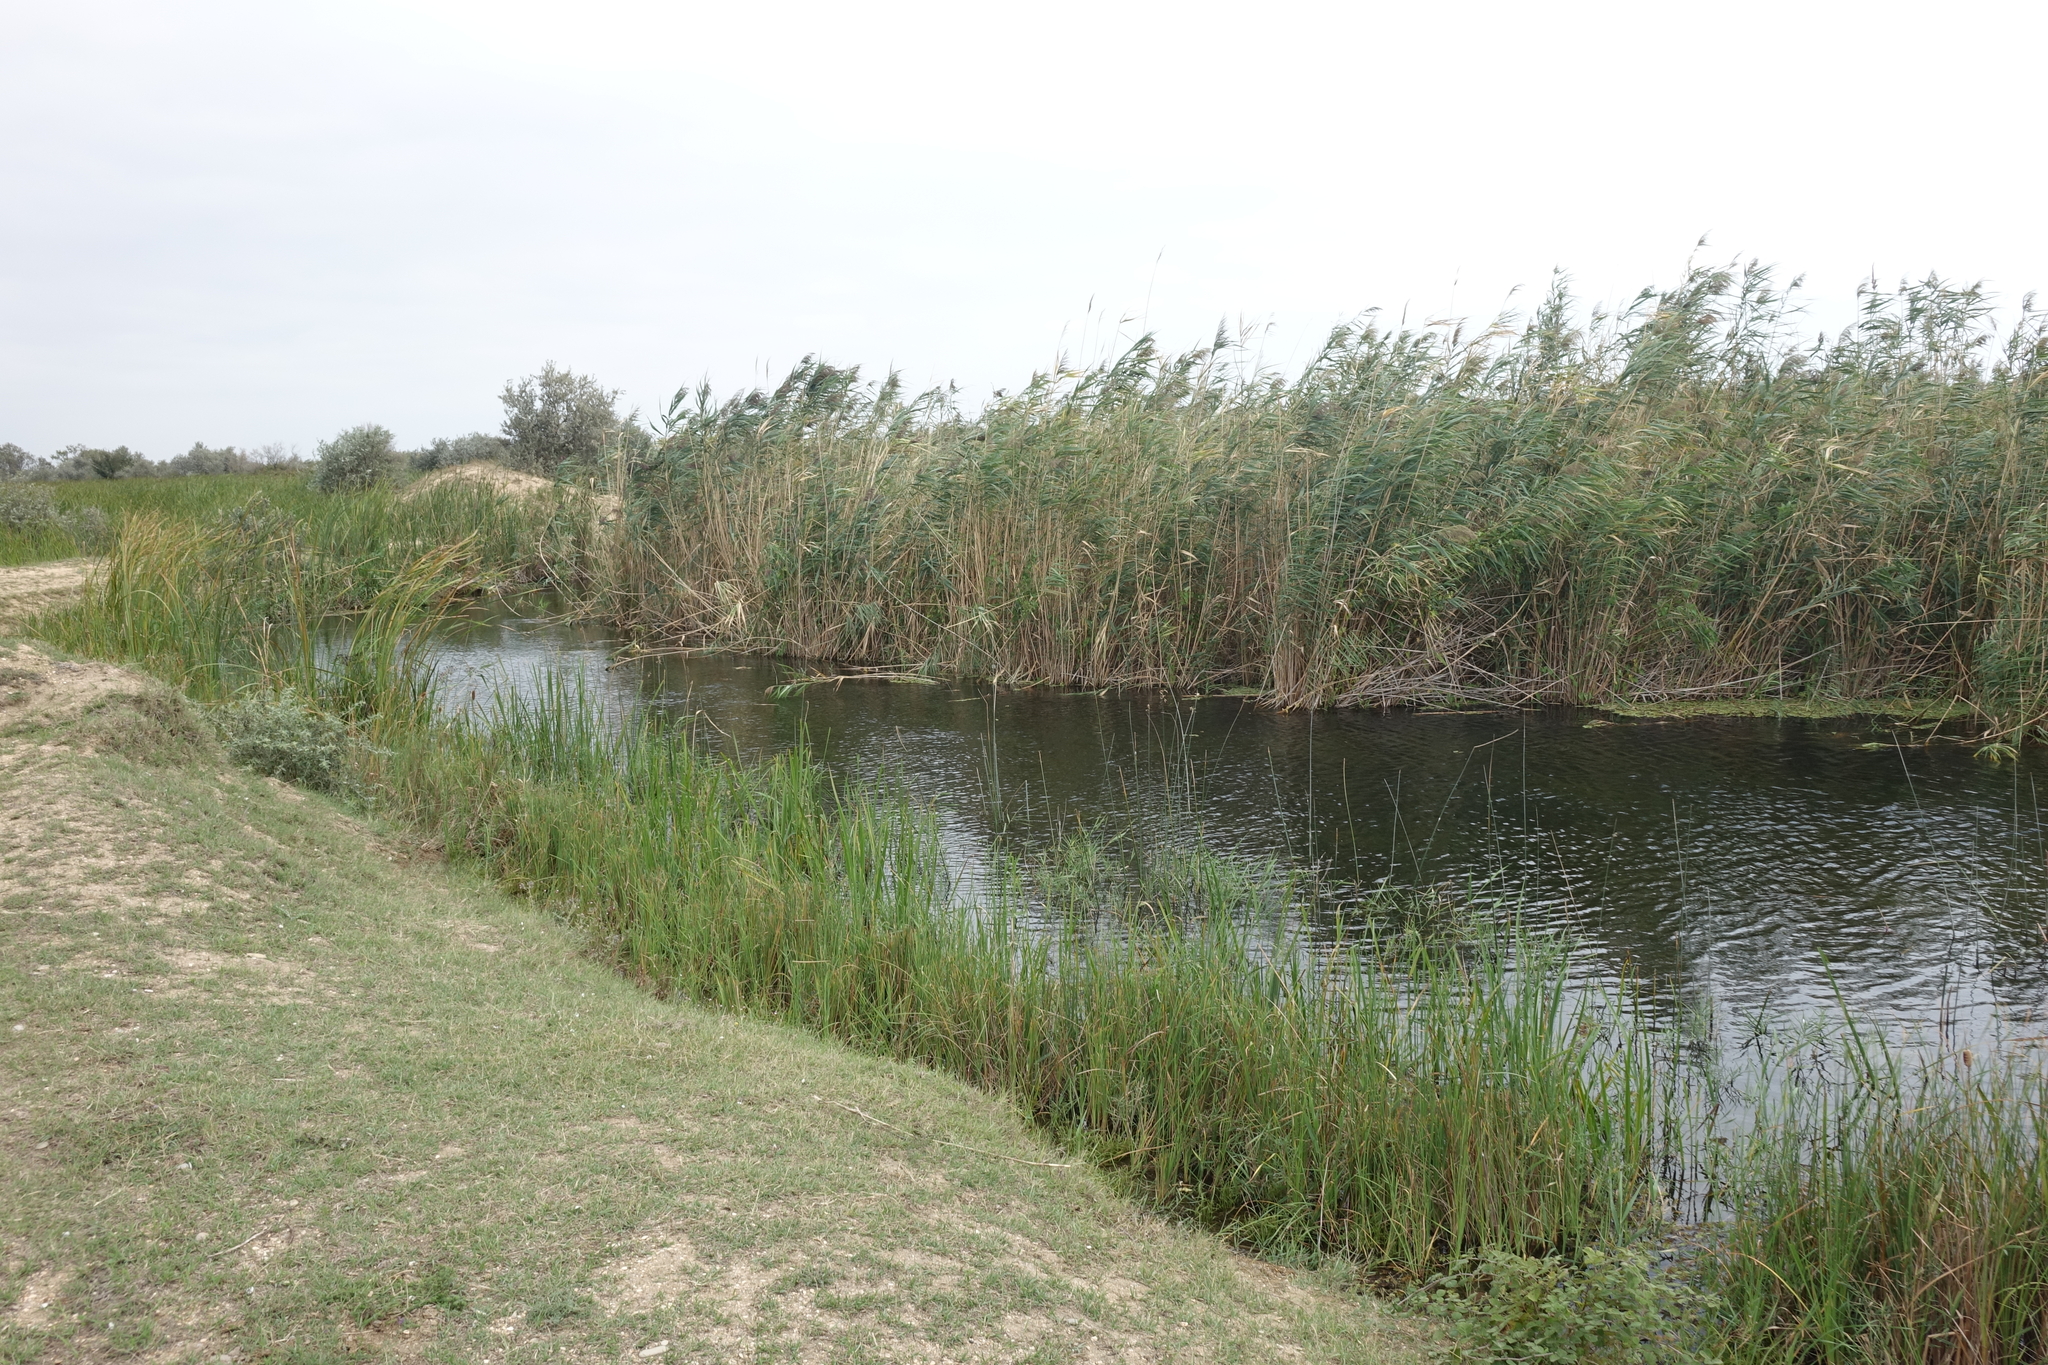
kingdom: Plantae
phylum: Tracheophyta
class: Liliopsida
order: Poales
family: Poaceae
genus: Phragmites
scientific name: Phragmites australis
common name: Common reed
